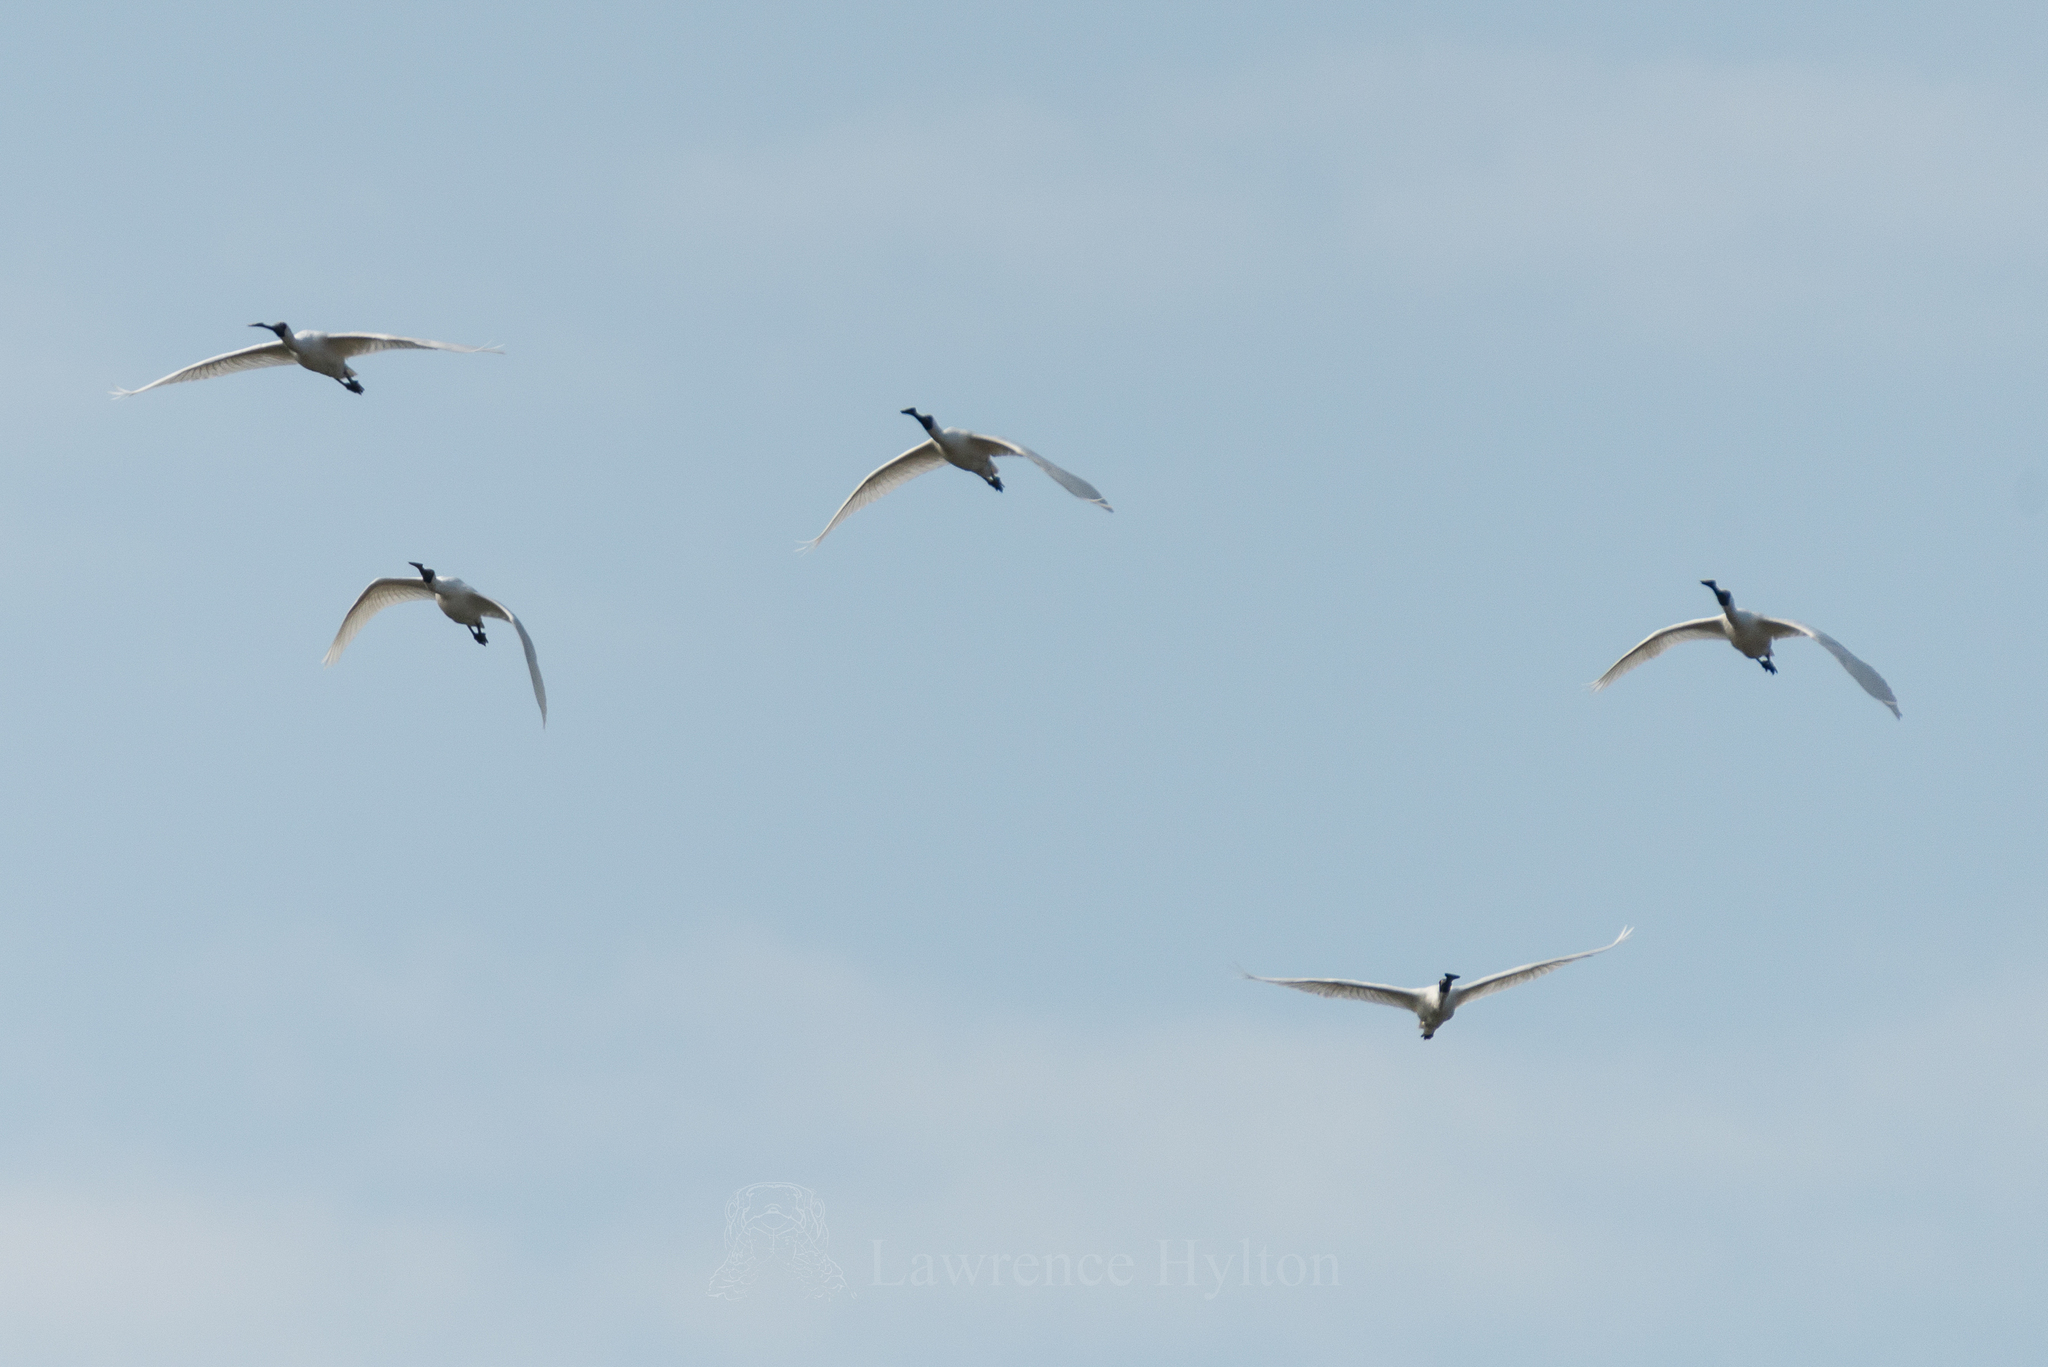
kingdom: Animalia
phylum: Chordata
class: Aves
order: Pelecaniformes
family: Threskiornithidae
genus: Platalea
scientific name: Platalea minor
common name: Black-faced spoonbill
